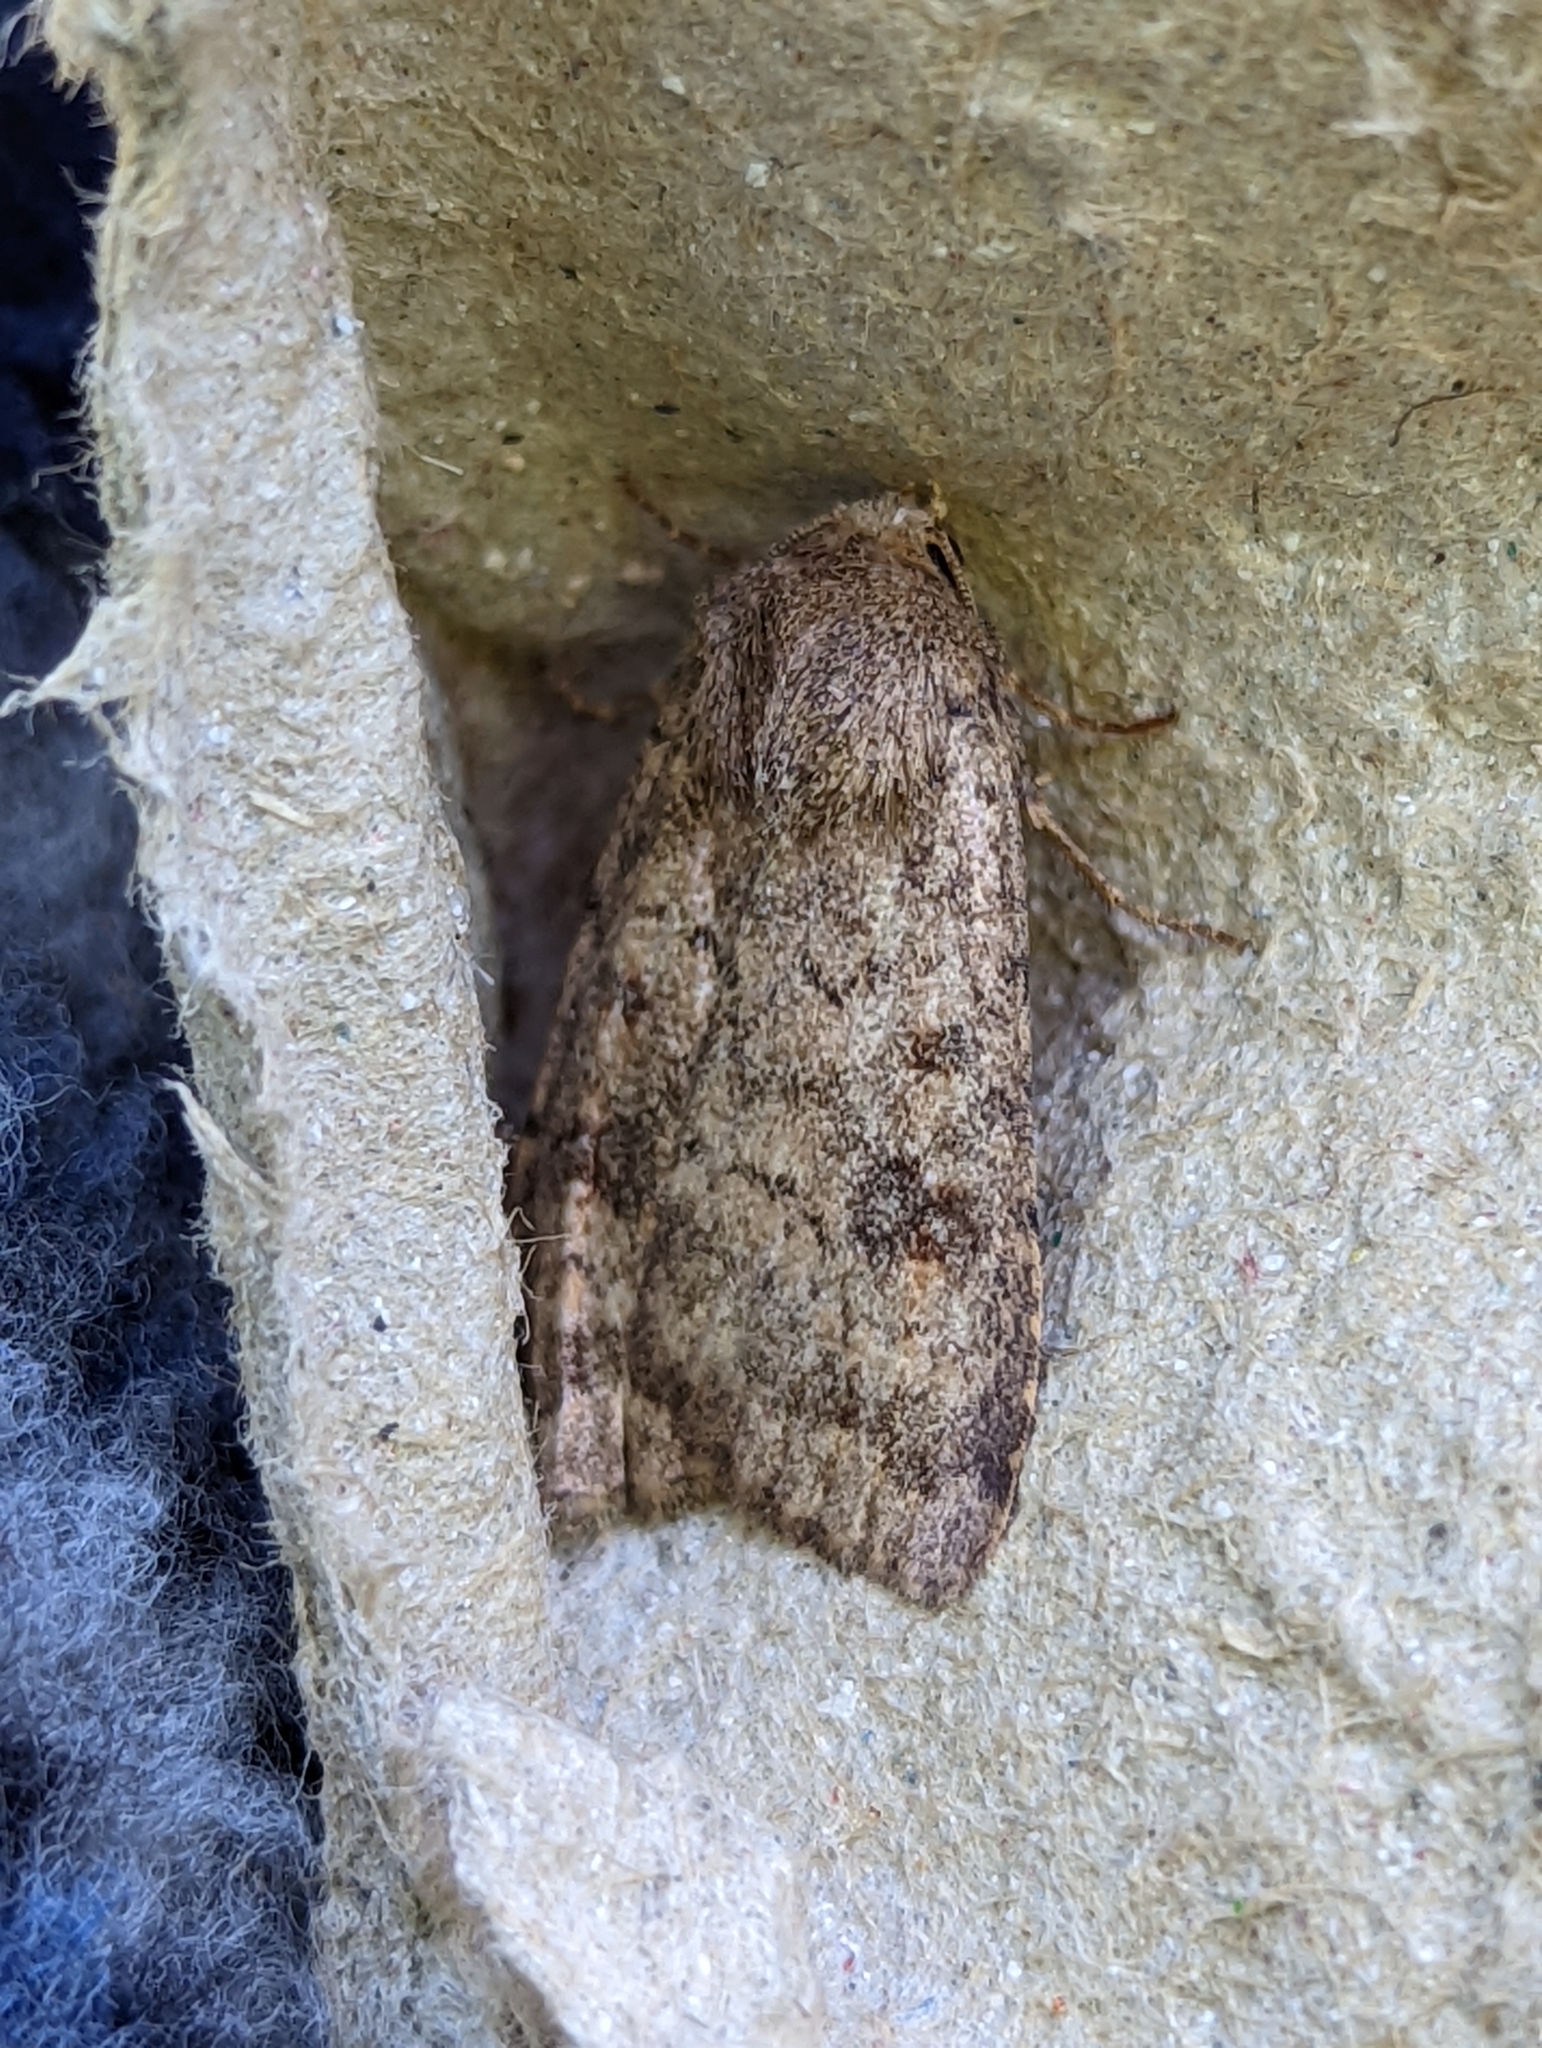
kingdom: Animalia
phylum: Arthropoda
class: Insecta
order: Lepidoptera
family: Noctuidae
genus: Caradrina
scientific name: Caradrina morpheus
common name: Mottled rustic
